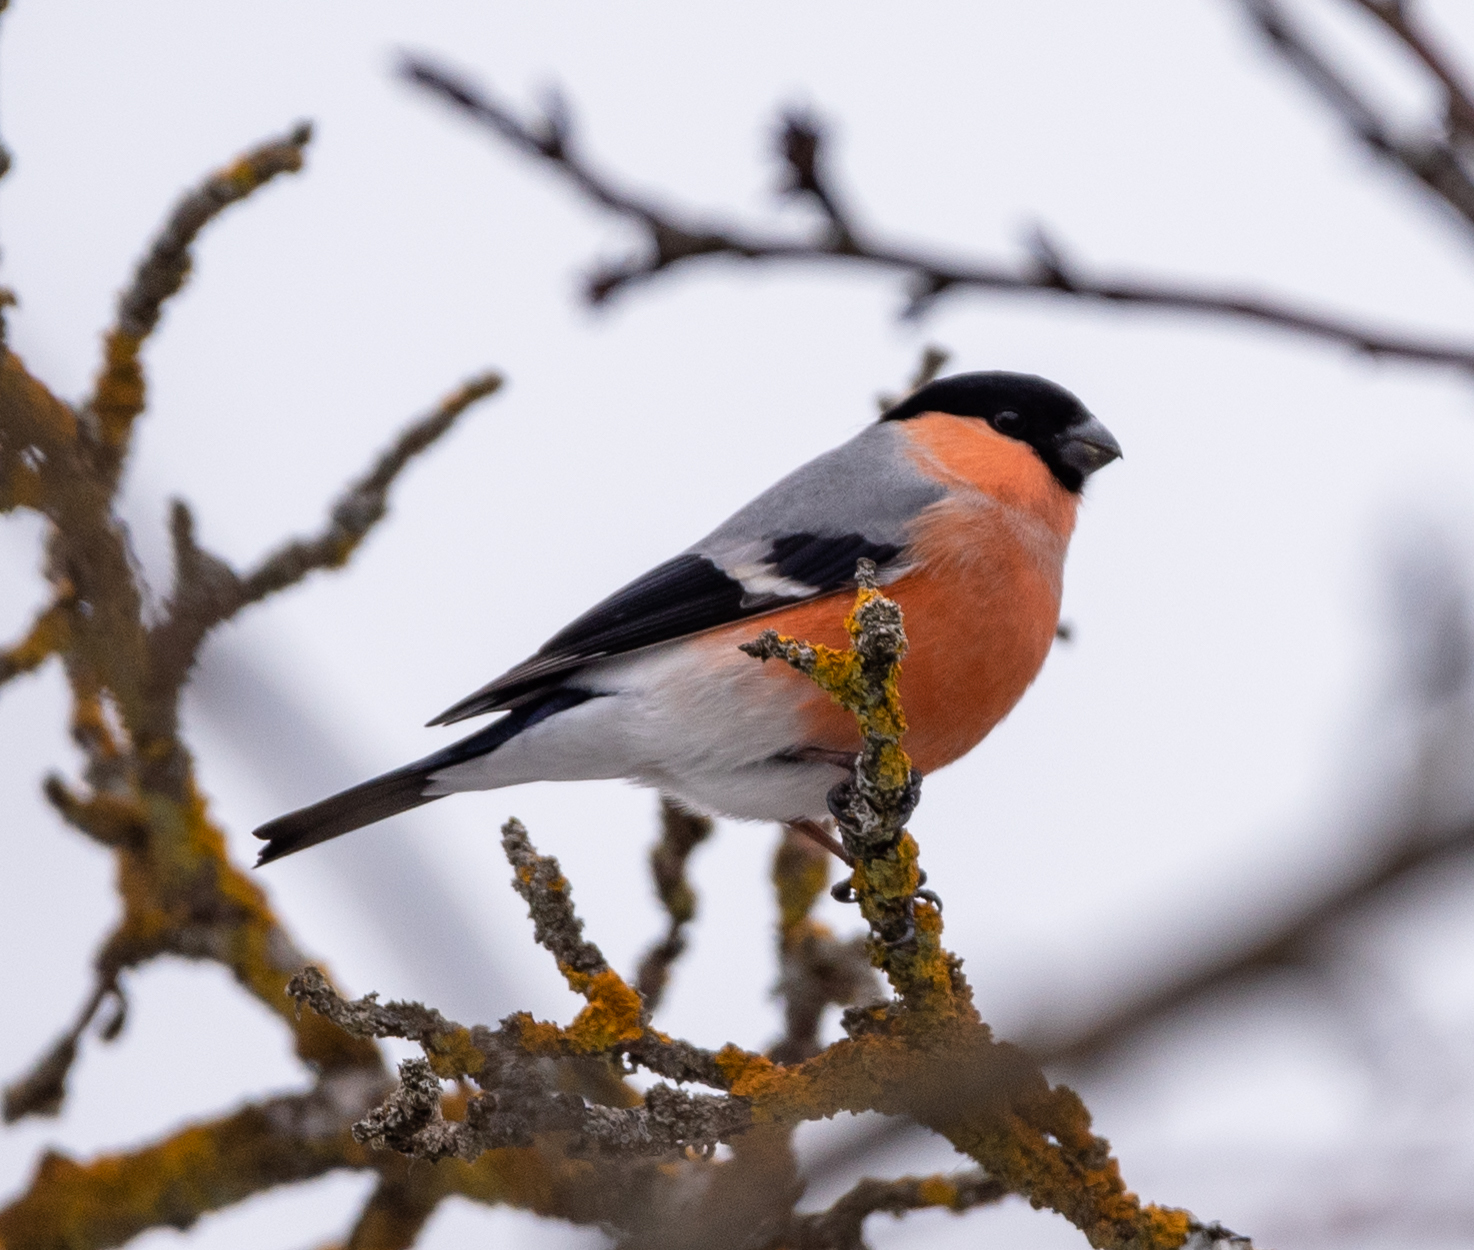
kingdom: Animalia
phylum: Chordata
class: Aves
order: Passeriformes
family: Fringillidae
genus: Pyrrhula
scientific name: Pyrrhula pyrrhula
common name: Eurasian bullfinch
